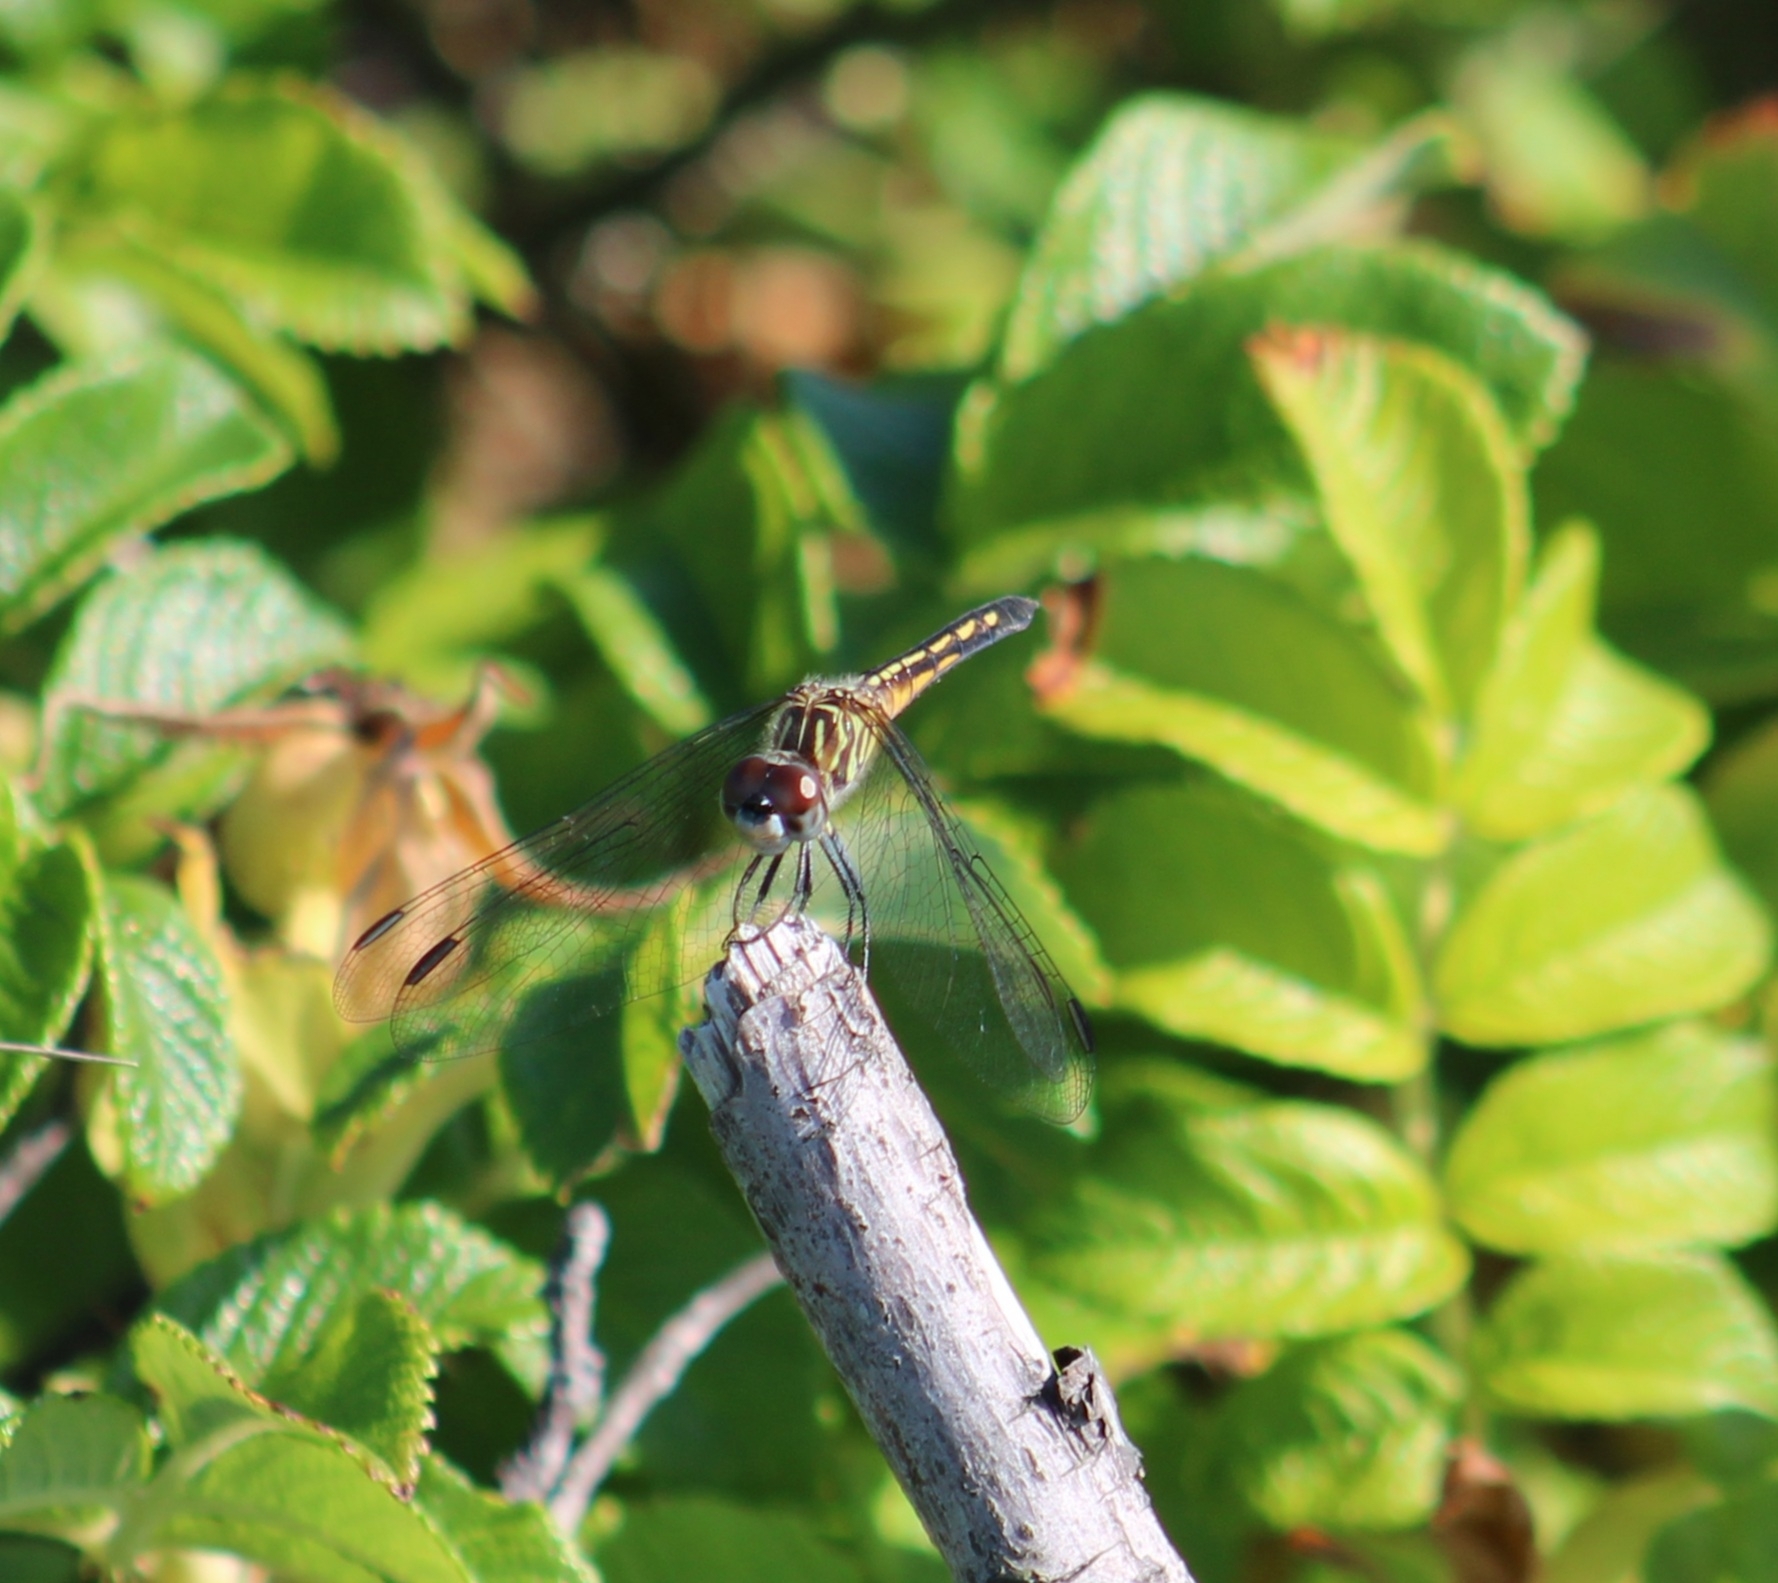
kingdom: Animalia
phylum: Arthropoda
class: Insecta
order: Odonata
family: Libellulidae
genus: Pachydiplax
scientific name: Pachydiplax longipennis
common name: Blue dasher
